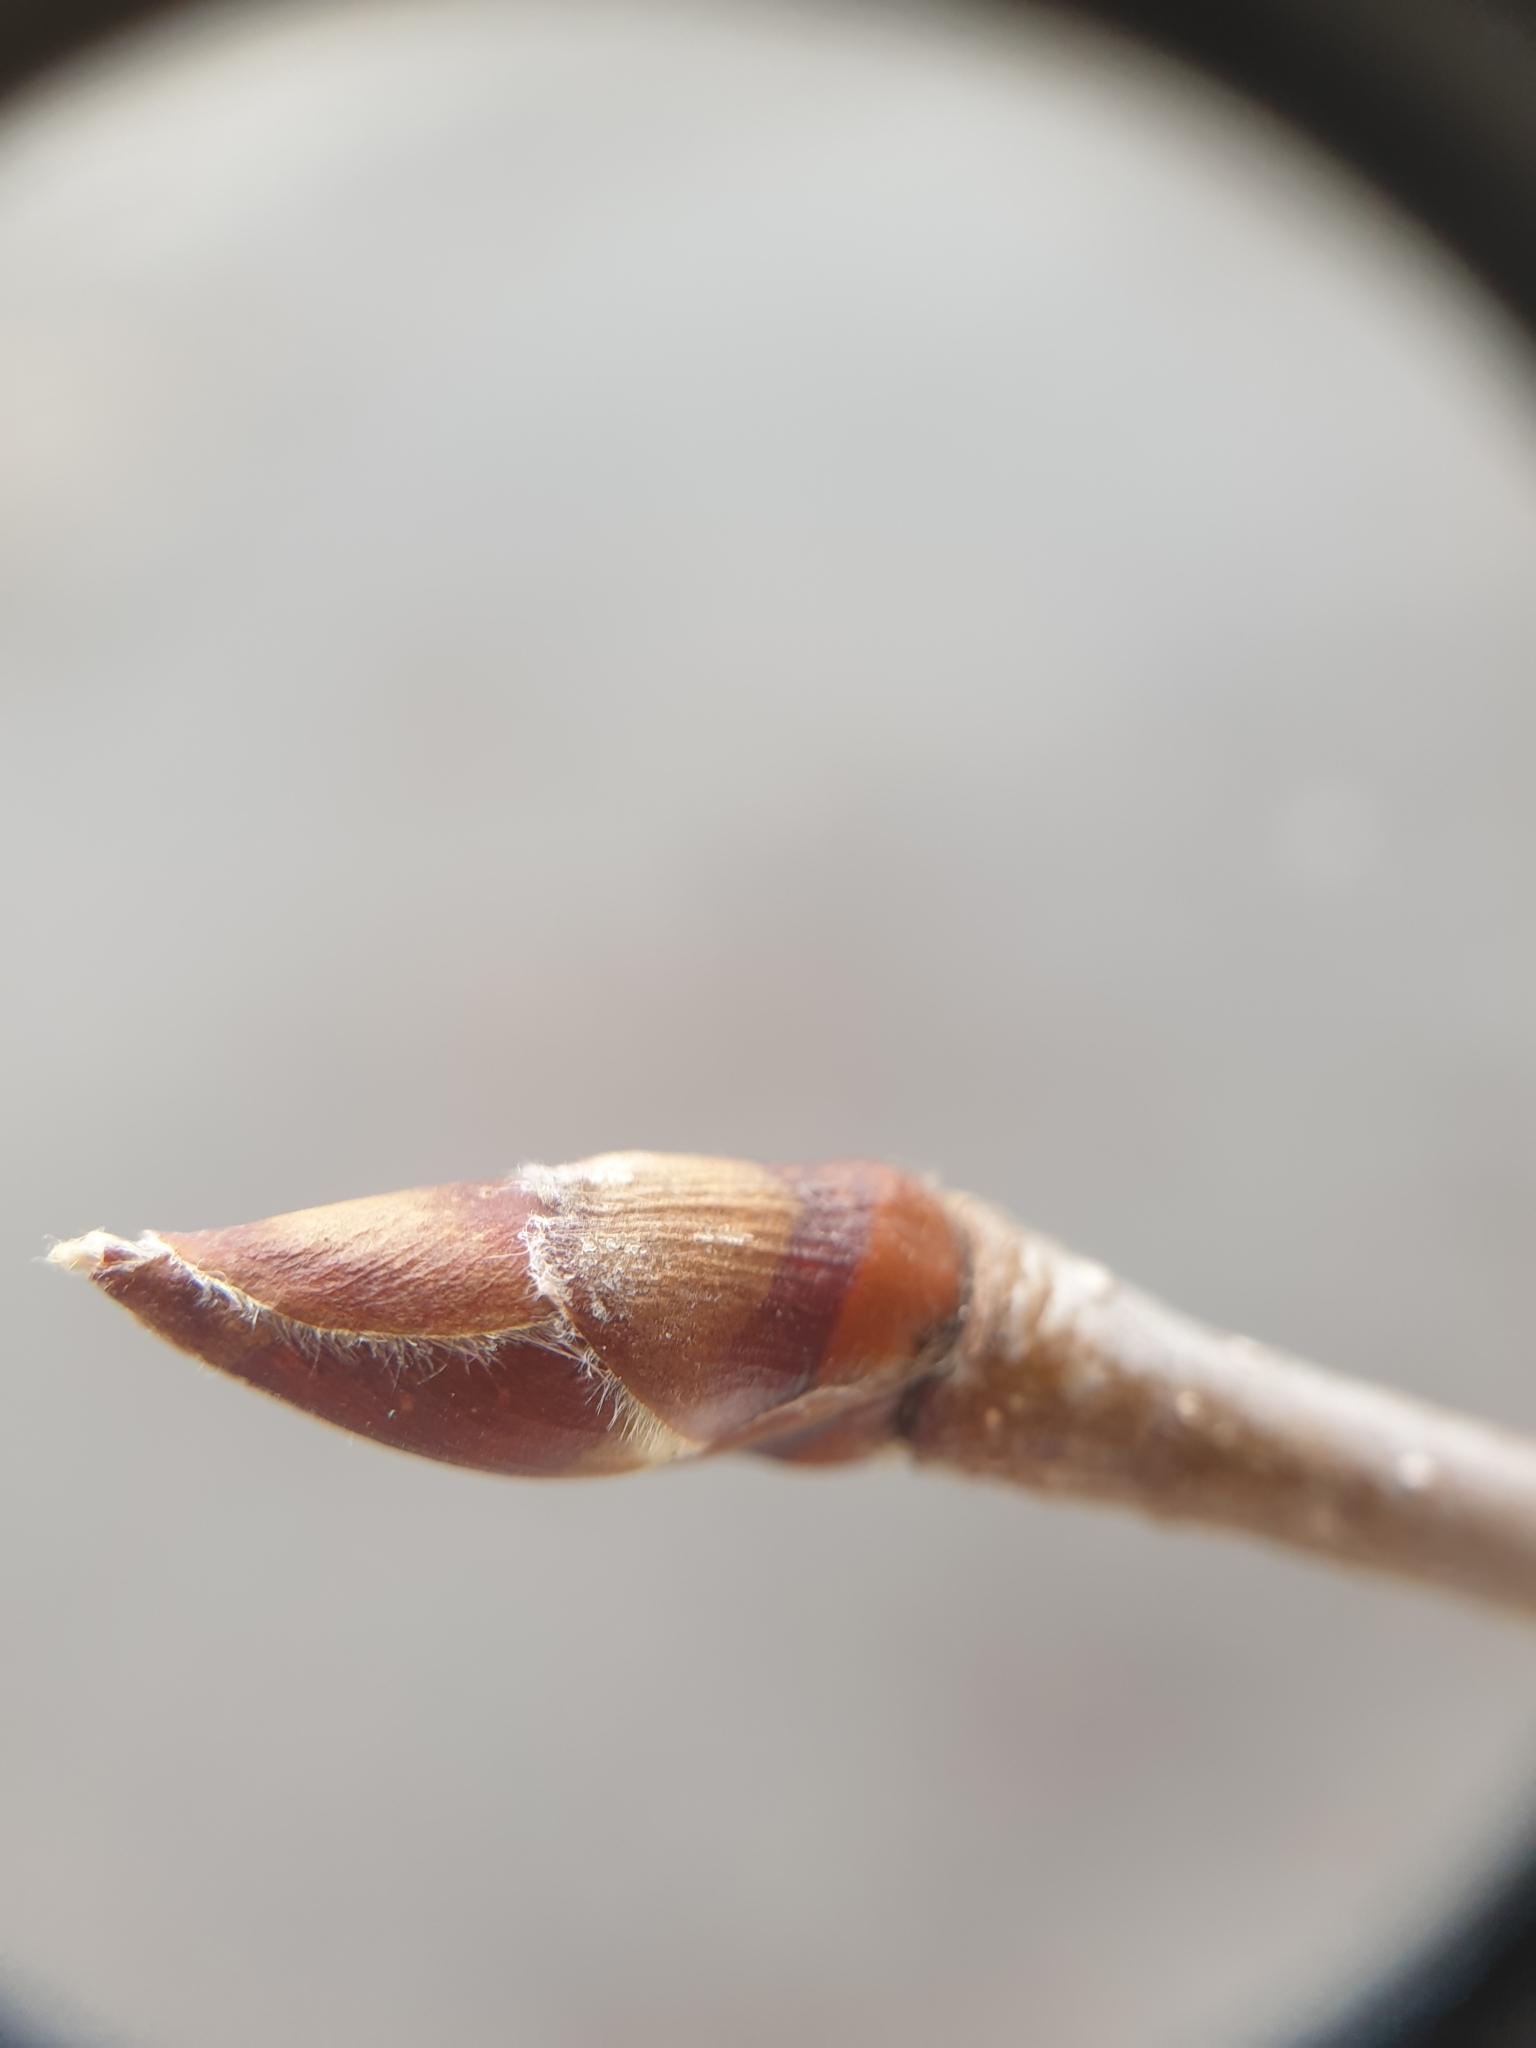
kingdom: Plantae
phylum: Tracheophyta
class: Magnoliopsida
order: Fagales
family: Betulaceae
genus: Betula
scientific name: Betula alleghaniensis
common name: Yellow birch
